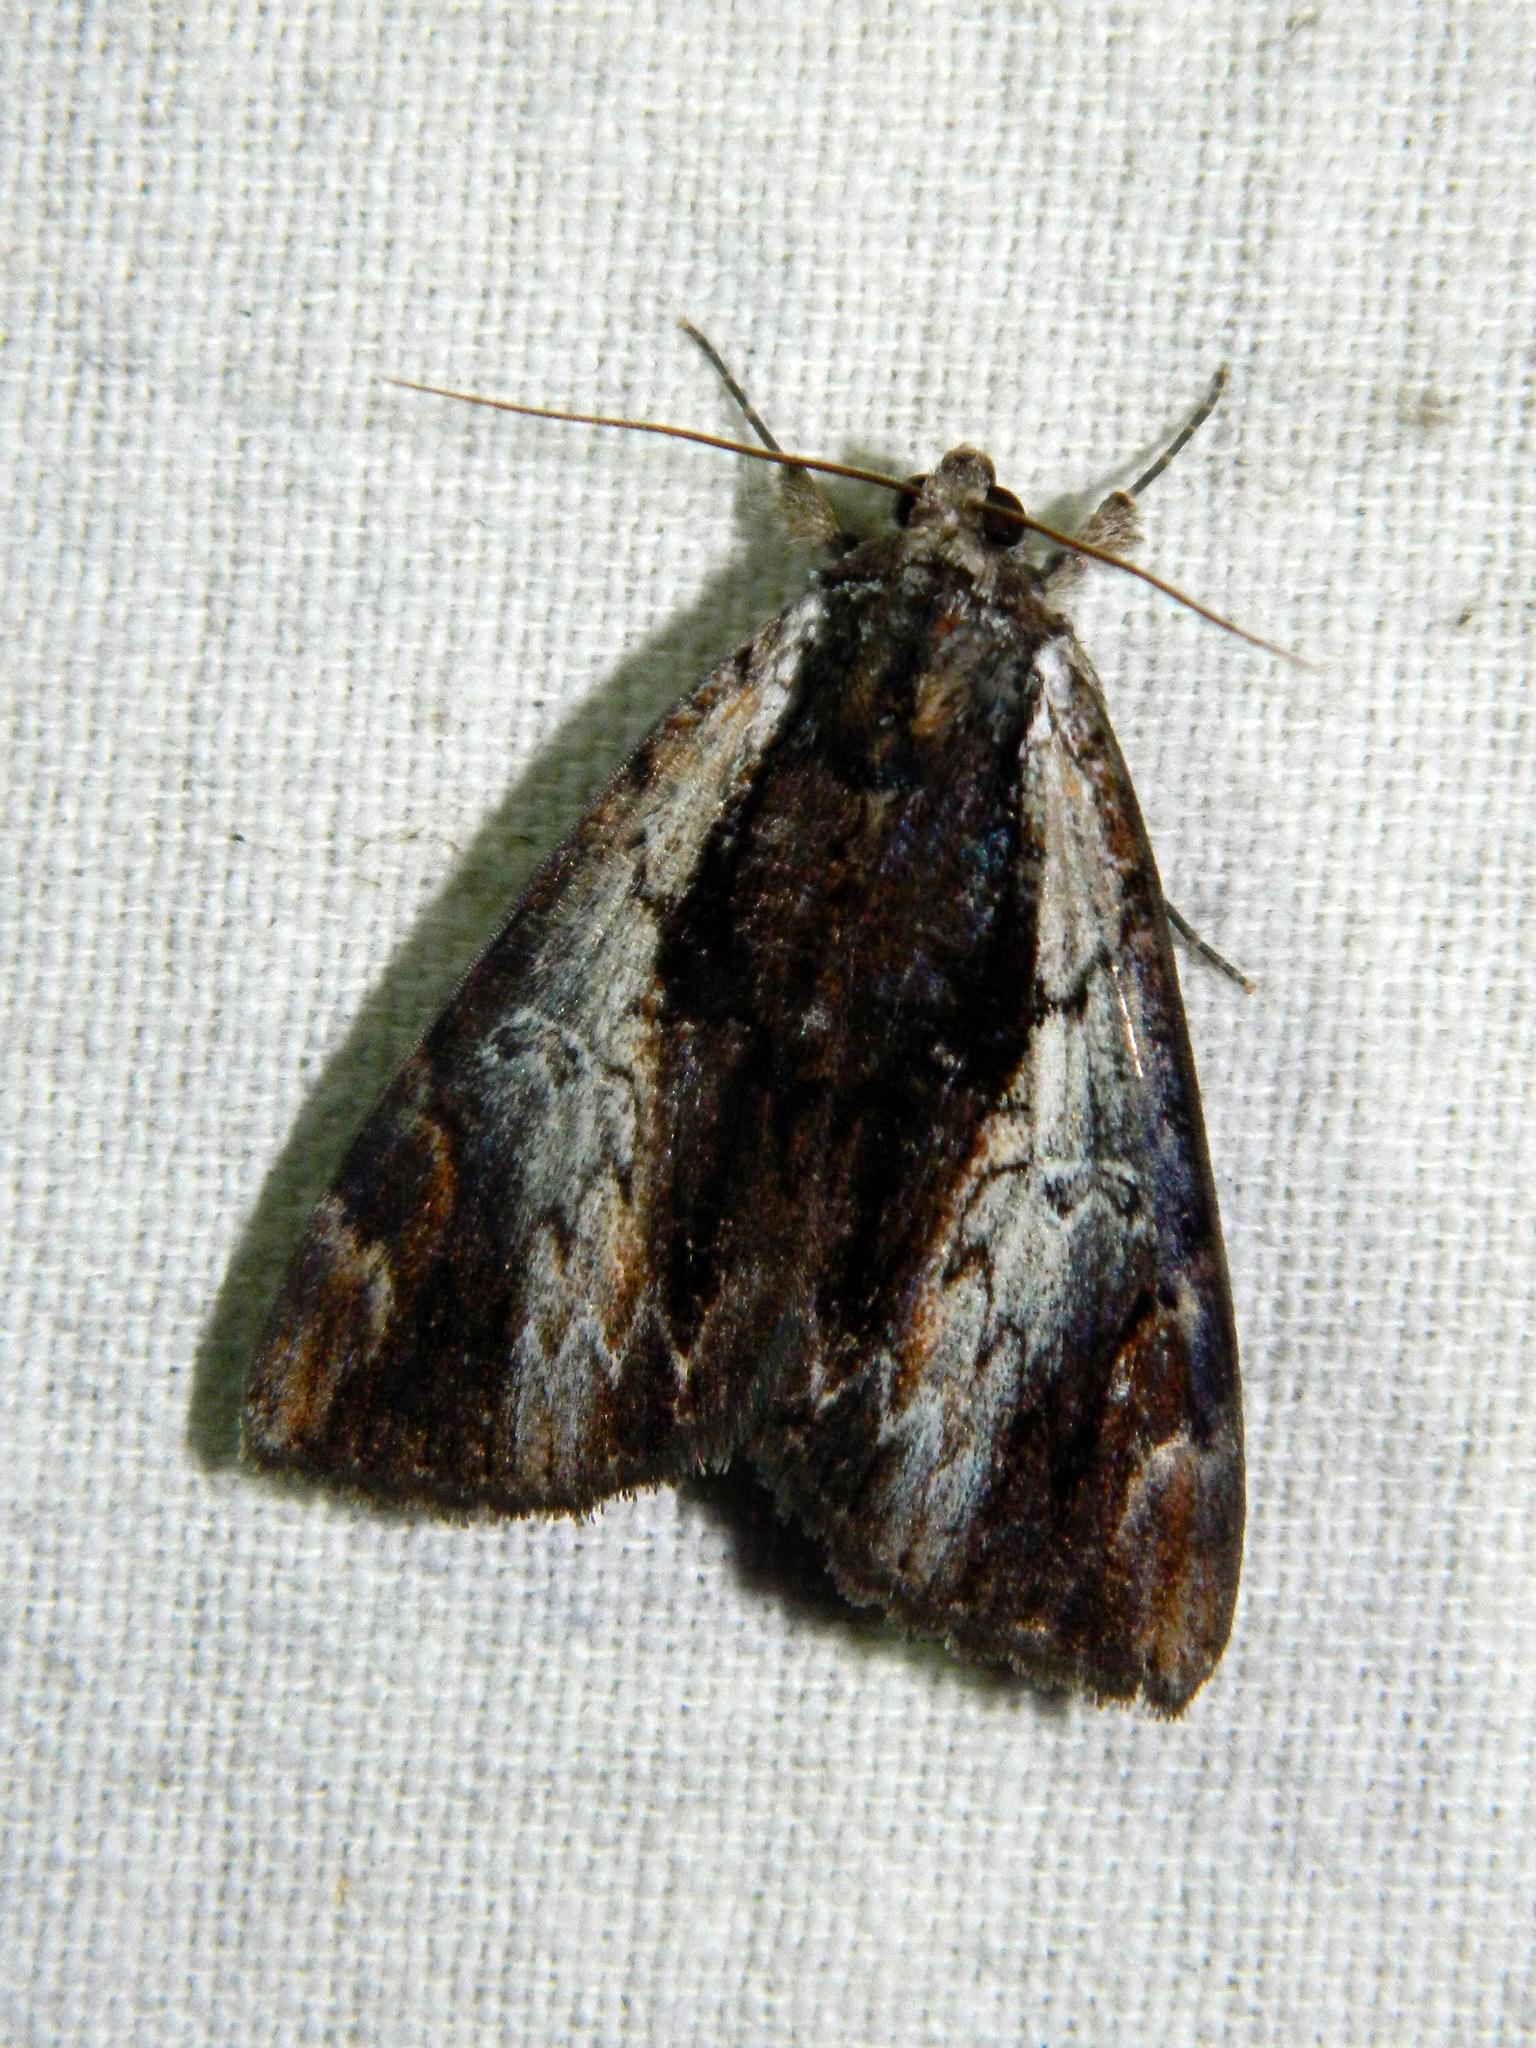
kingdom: Animalia
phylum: Arthropoda
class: Insecta
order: Lepidoptera
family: Erebidae
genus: Catocala
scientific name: Catocala ultronia
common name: Ultronia underwing
